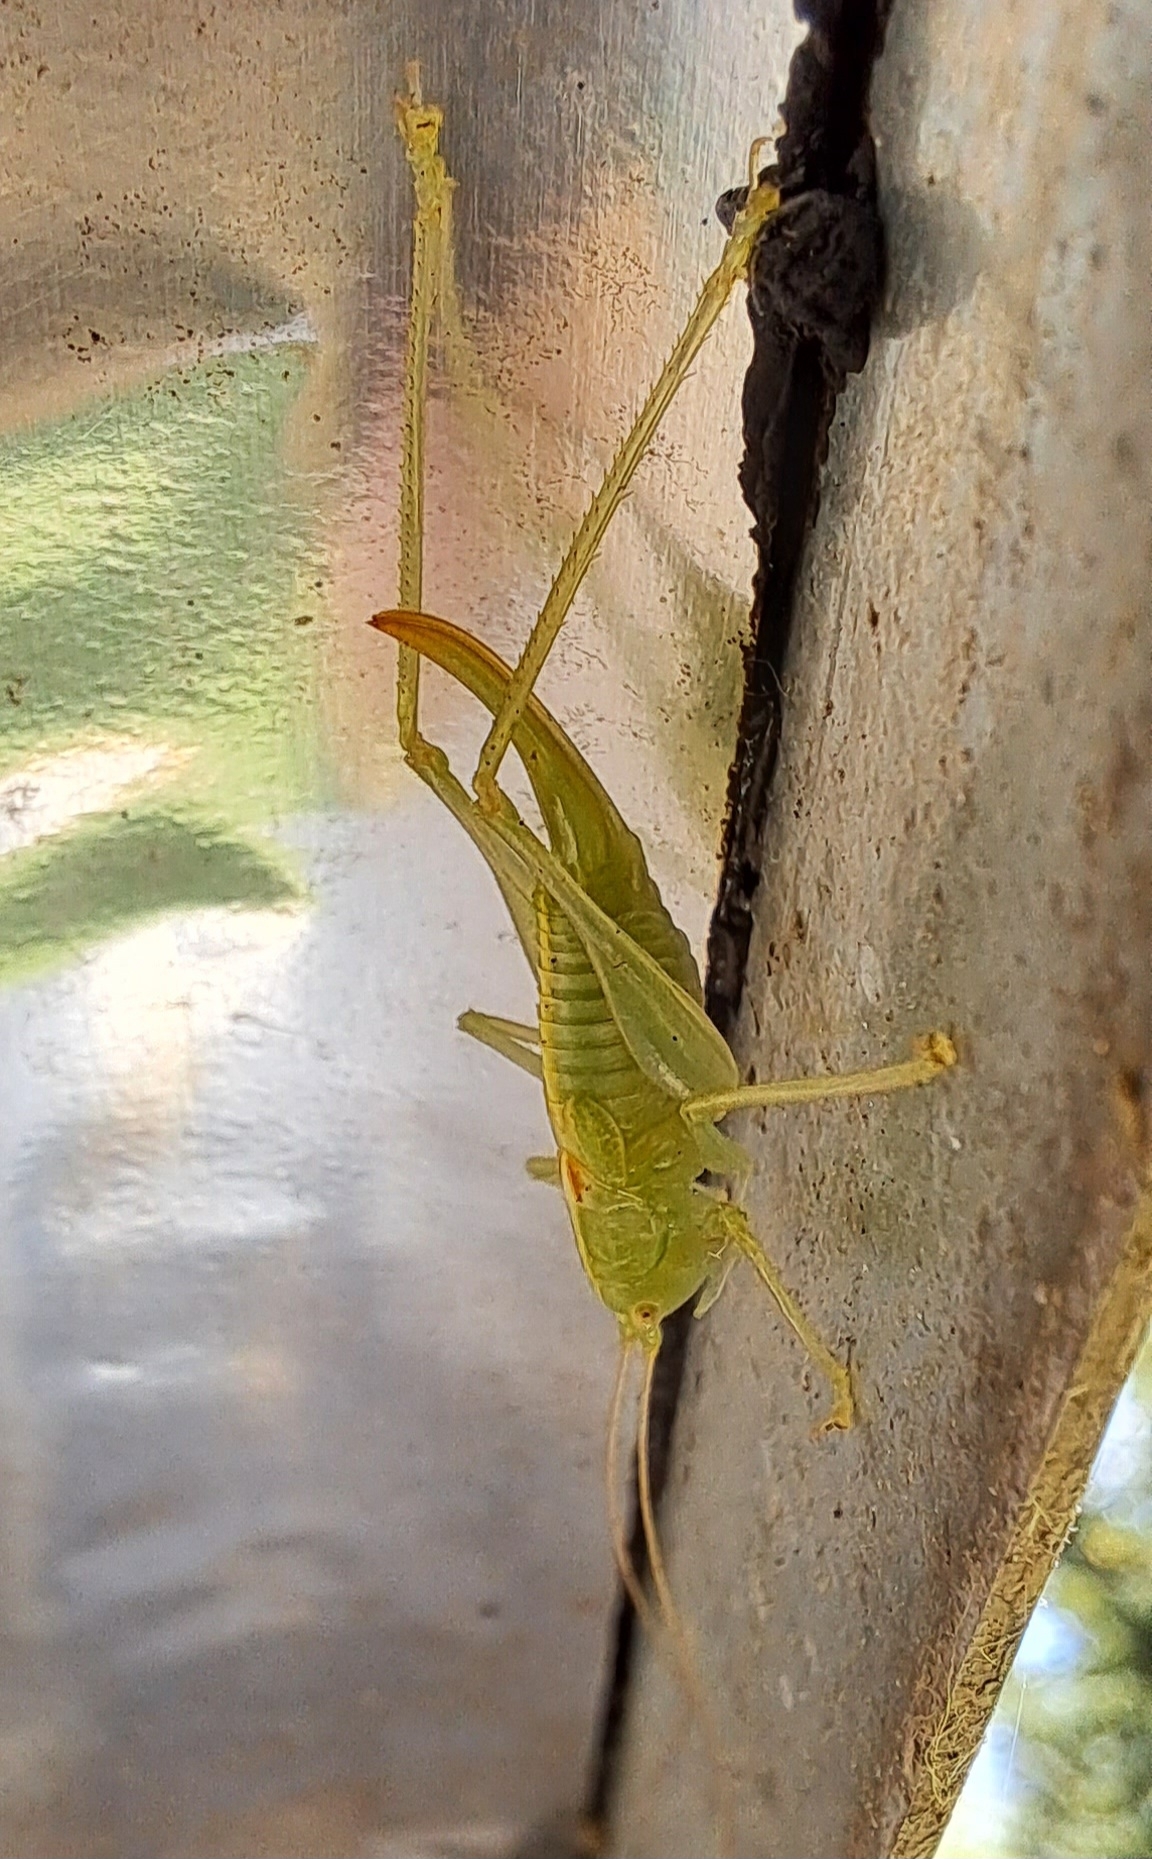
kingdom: Animalia
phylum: Arthropoda
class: Insecta
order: Orthoptera
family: Tettigoniidae
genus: Meconema
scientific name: Meconema meridionale
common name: Southern oak bush-cricket
